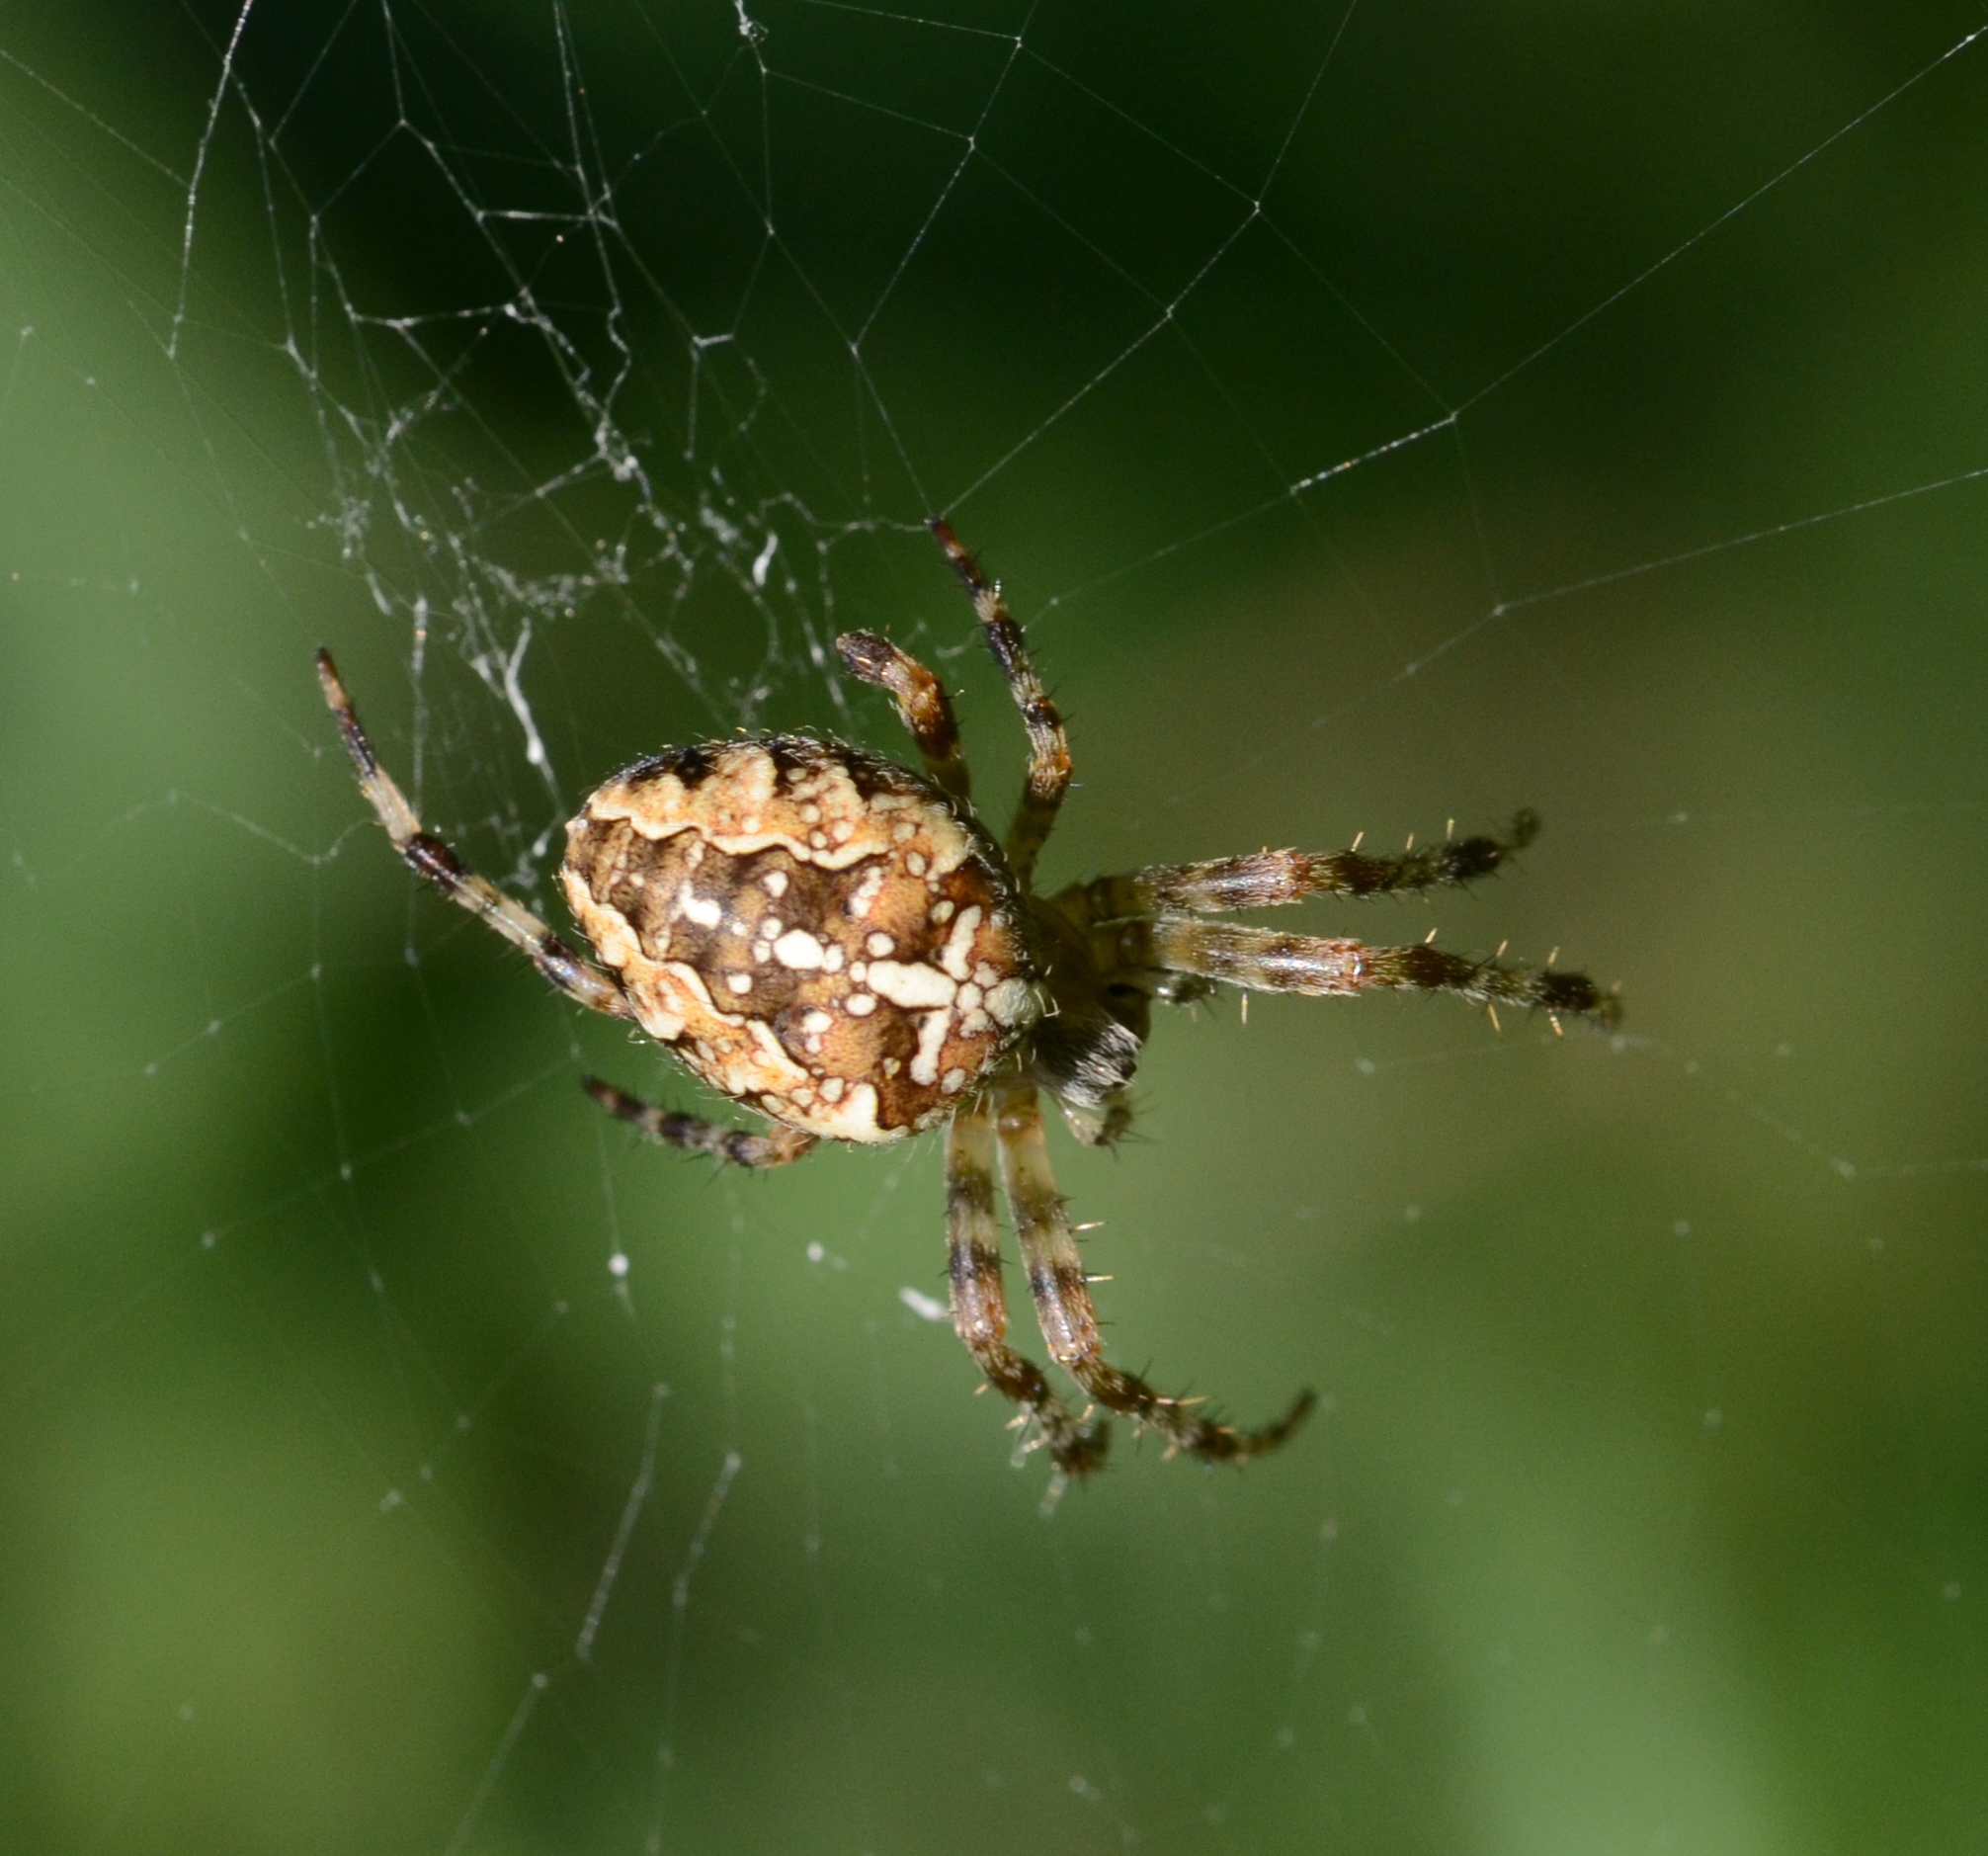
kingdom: Animalia
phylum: Arthropoda
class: Arachnida
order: Araneae
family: Araneidae
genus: Araneus
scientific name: Araneus diadematus
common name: Cross orbweaver
